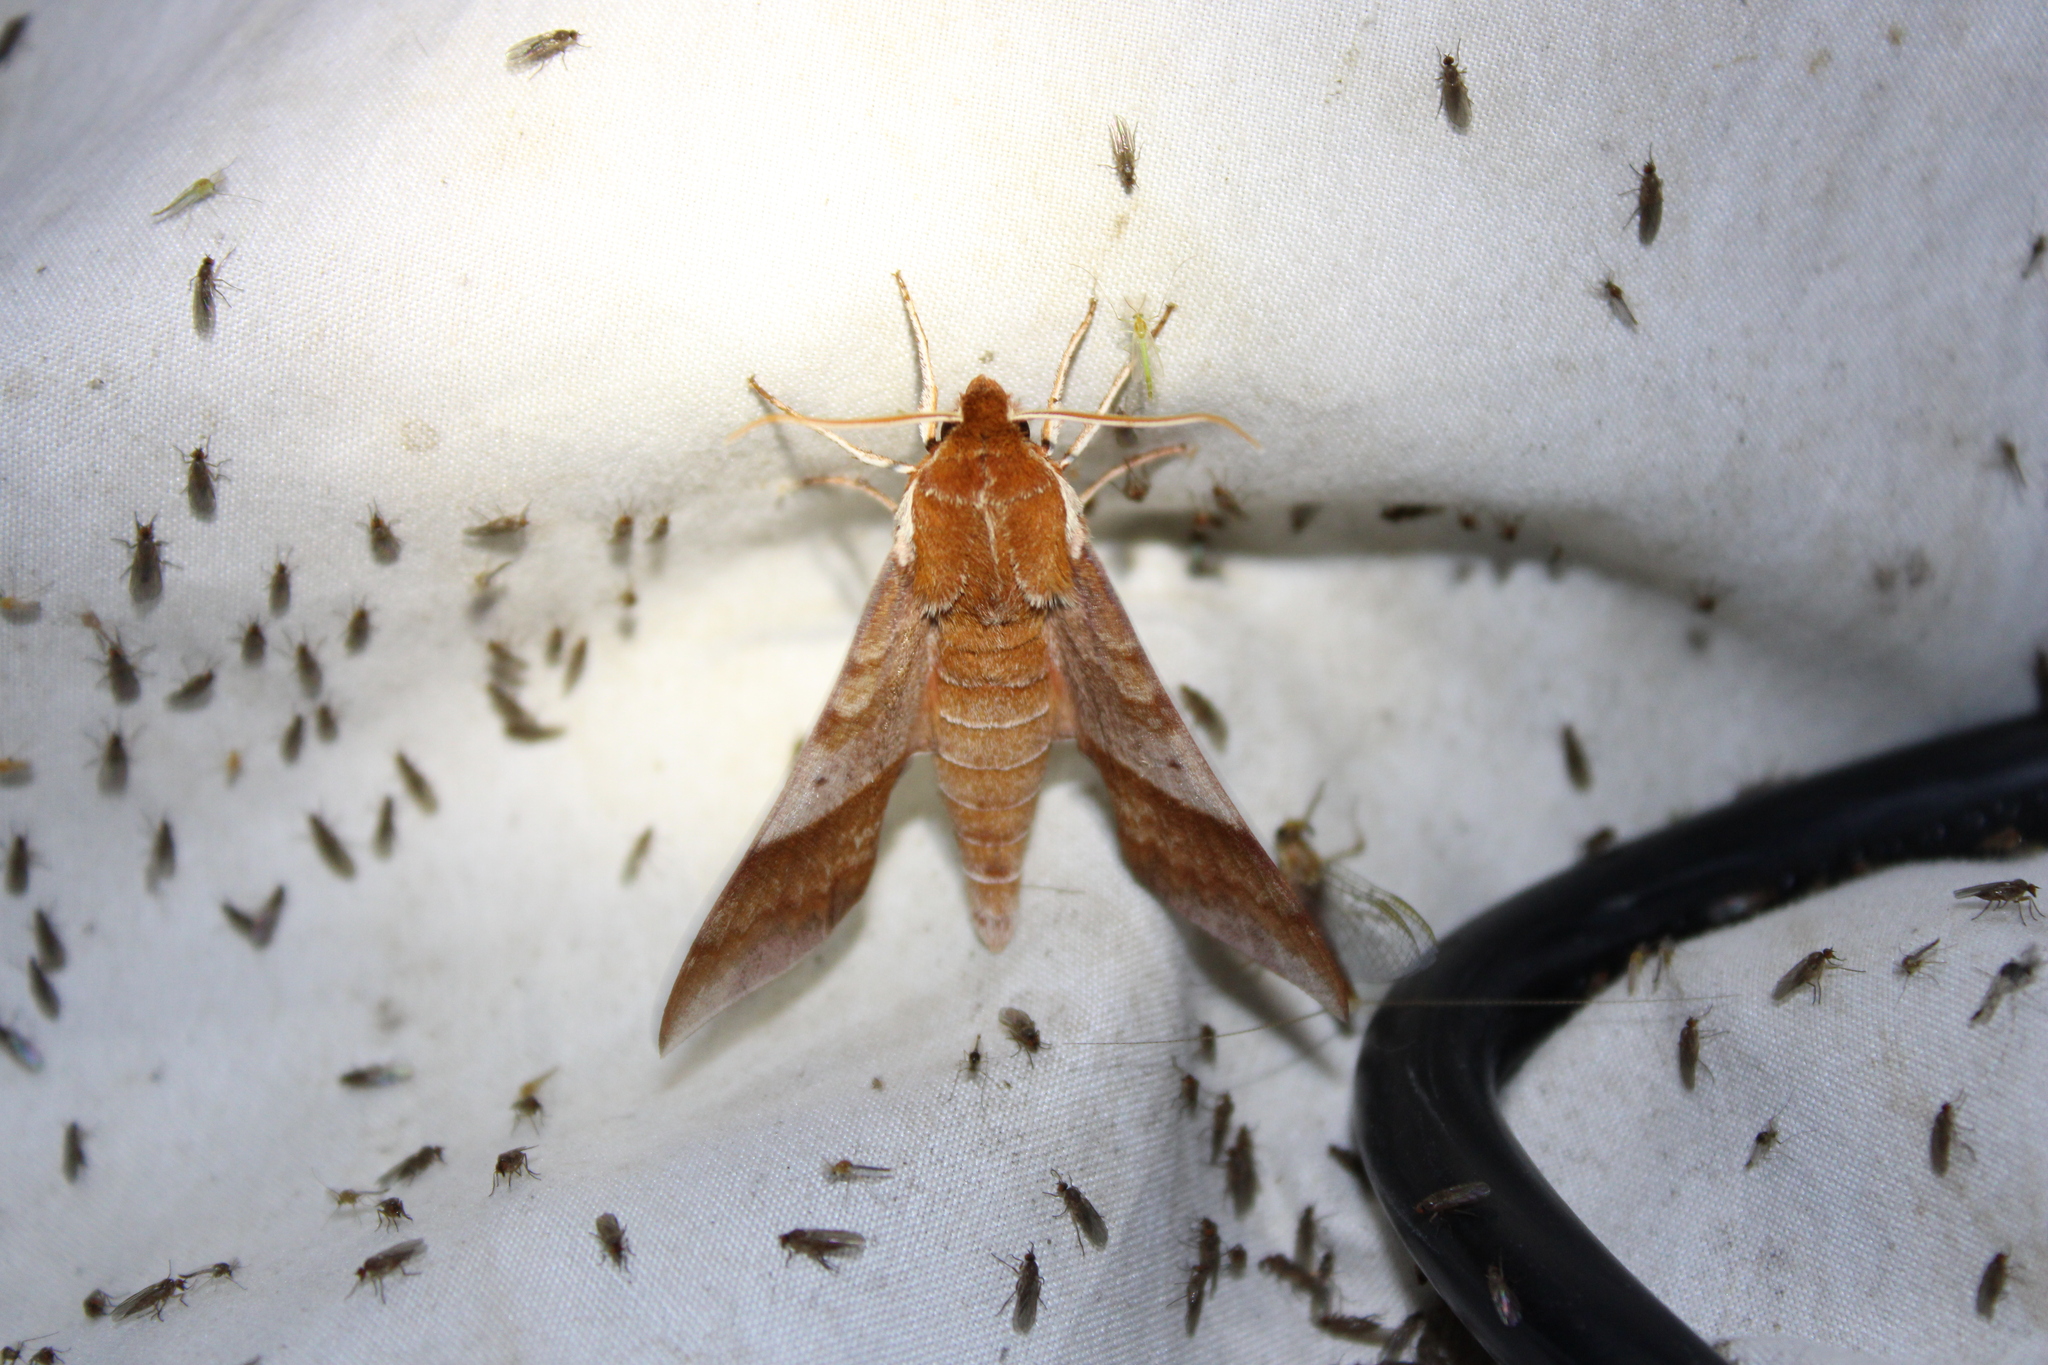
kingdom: Animalia
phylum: Arthropoda
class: Insecta
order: Lepidoptera
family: Sphingidae
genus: Darapsa
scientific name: Darapsa choerilus
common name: Azalea sphinx
